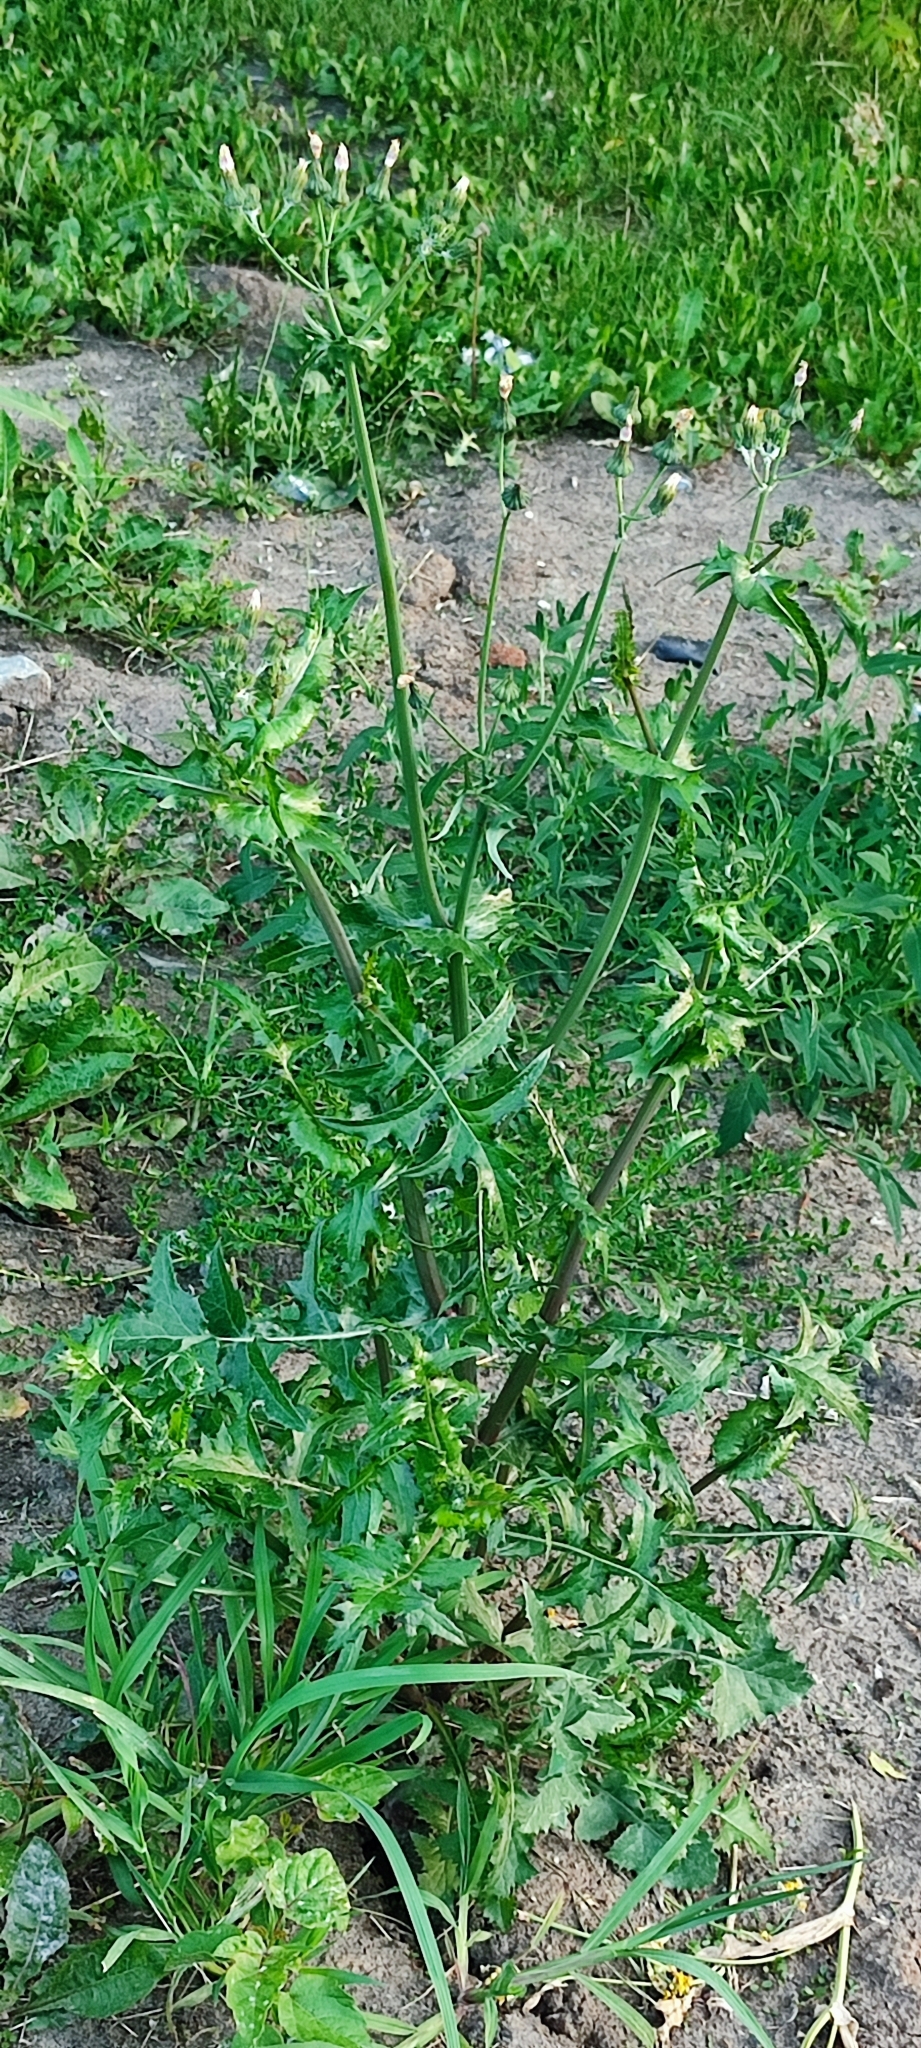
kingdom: Plantae
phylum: Tracheophyta
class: Magnoliopsida
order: Asterales
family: Asteraceae
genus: Sonchus
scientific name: Sonchus oleraceus
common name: Common sowthistle
